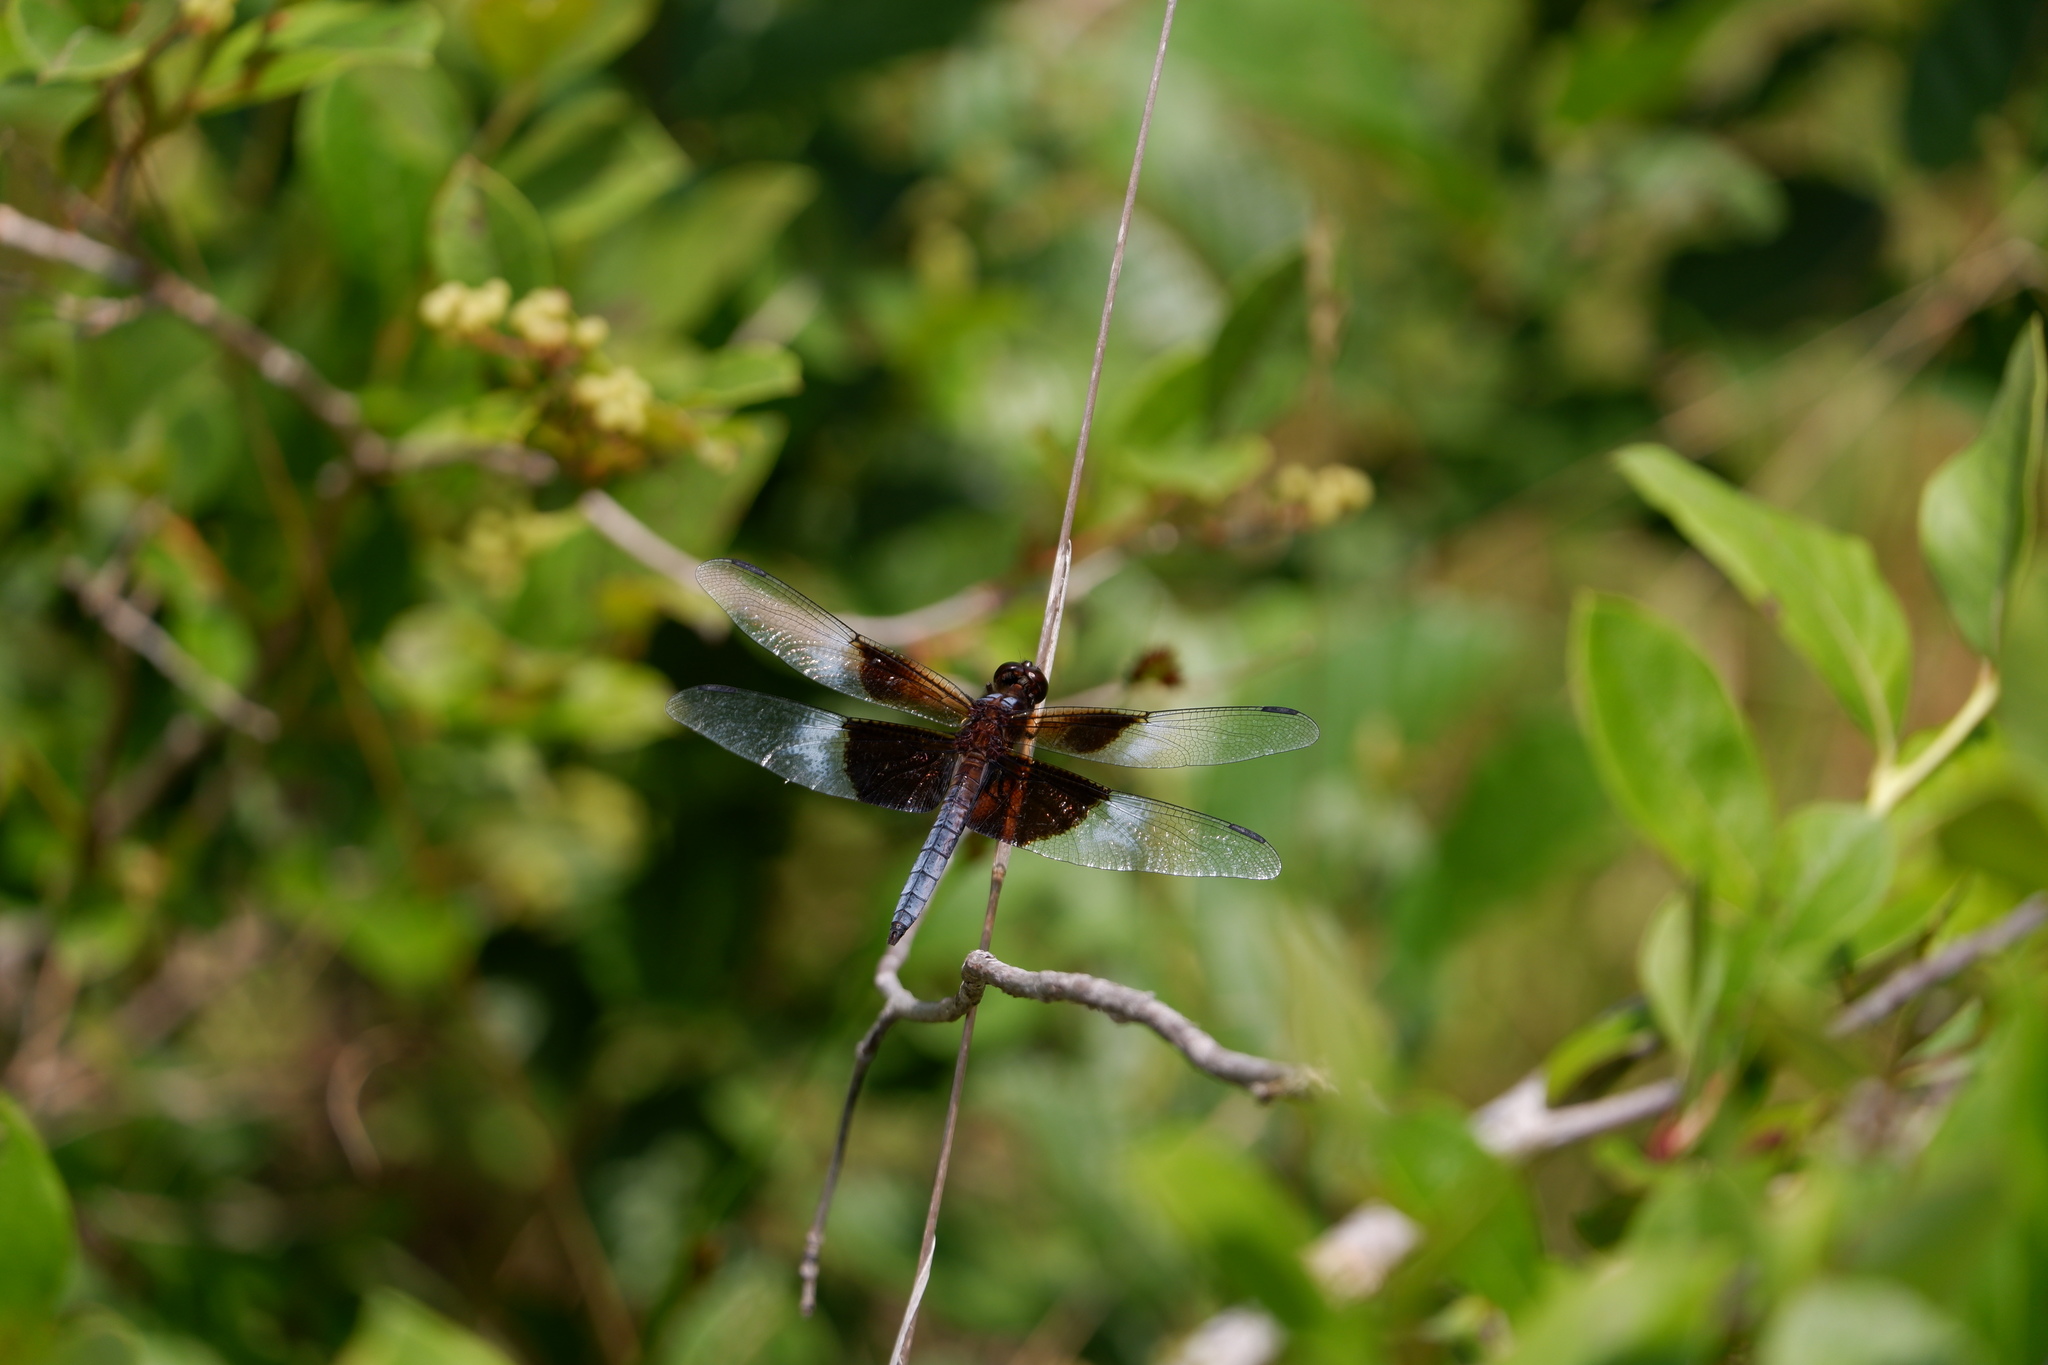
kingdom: Animalia
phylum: Arthropoda
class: Insecta
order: Odonata
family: Libellulidae
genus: Libellula
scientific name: Libellula luctuosa
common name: Widow skimmer
